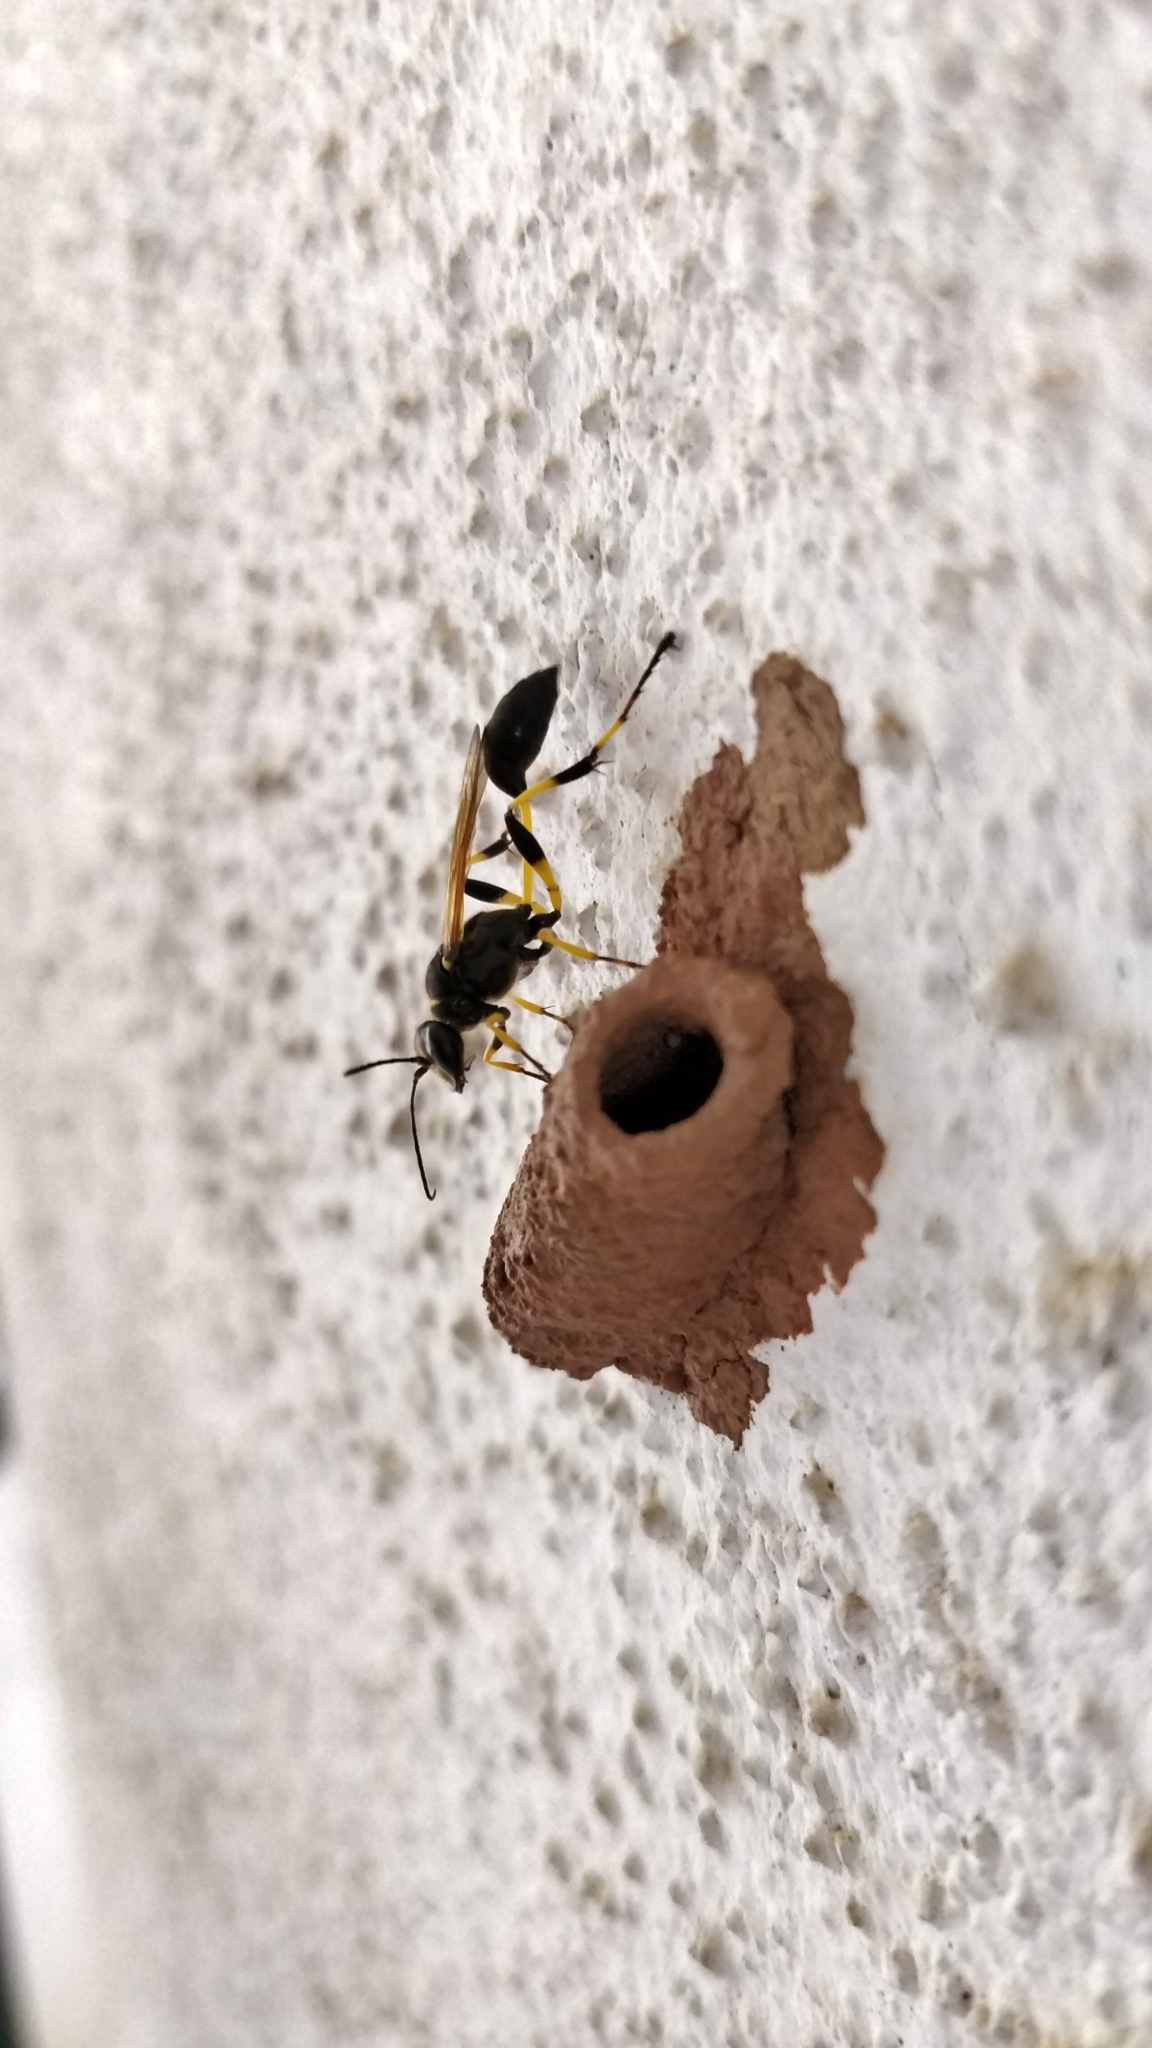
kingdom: Animalia
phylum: Arthropoda
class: Insecta
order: Hymenoptera
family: Sphecidae
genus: Sceliphron
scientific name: Sceliphron madraspatanum
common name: Mud dauber
